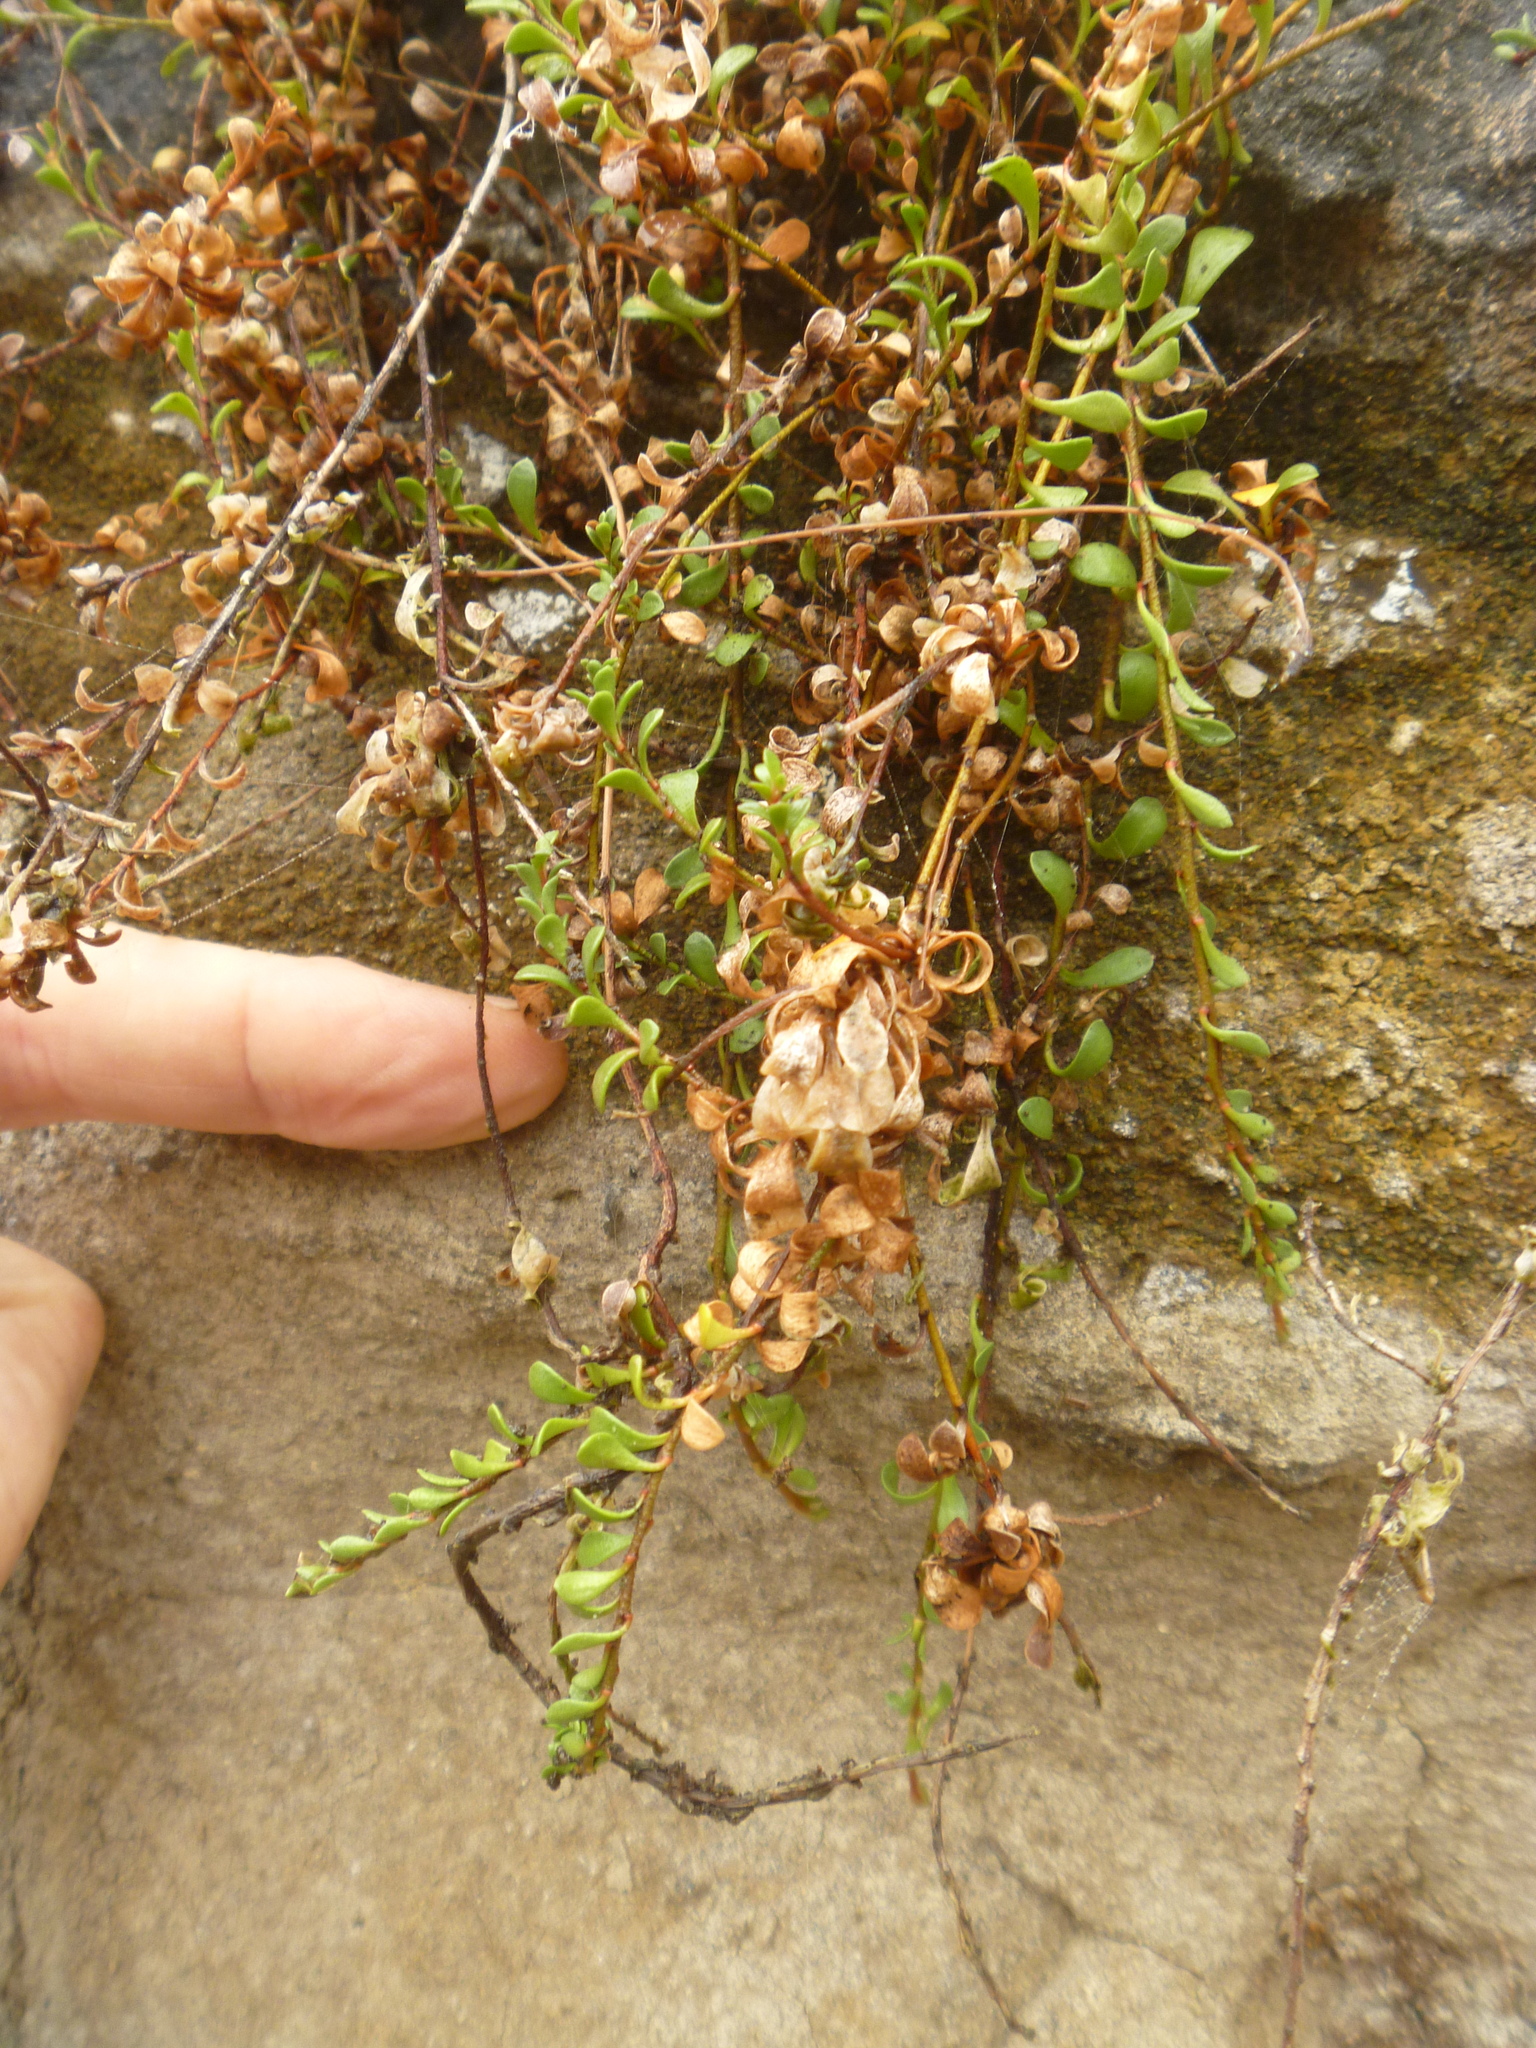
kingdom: Plantae
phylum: Tracheophyta
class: Magnoliopsida
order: Ericales
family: Primulaceae
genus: Samolus
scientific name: Samolus repens
